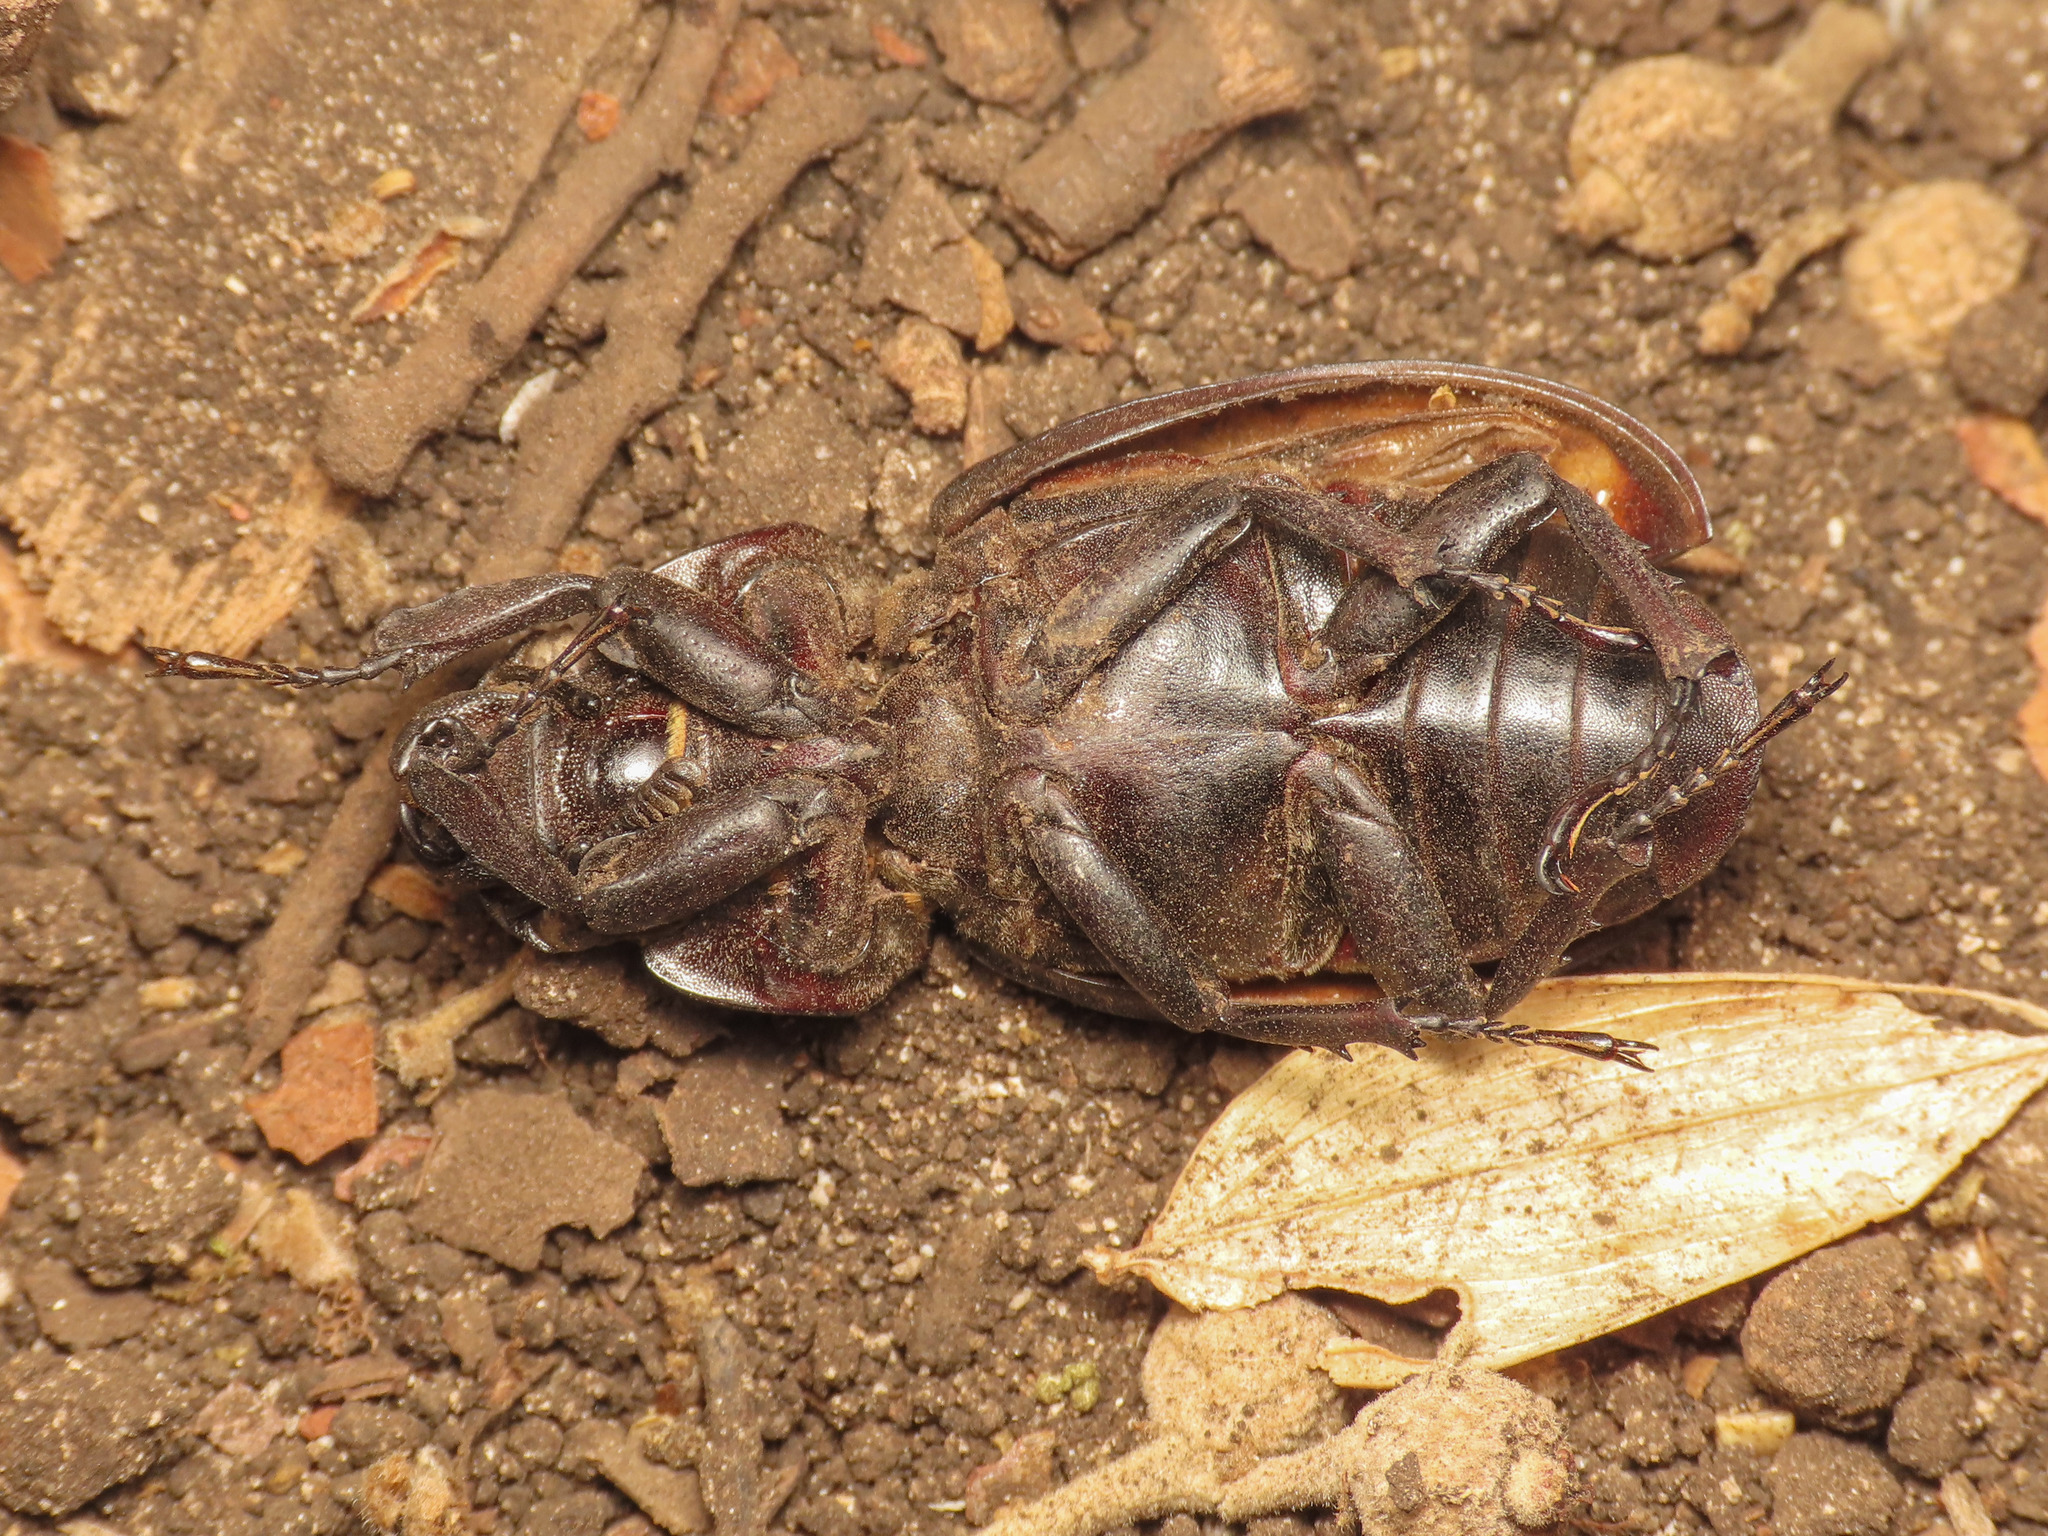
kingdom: Animalia
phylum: Arthropoda
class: Insecta
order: Coleoptera
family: Lucanidae
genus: Lucanus
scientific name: Lucanus tetraodon
